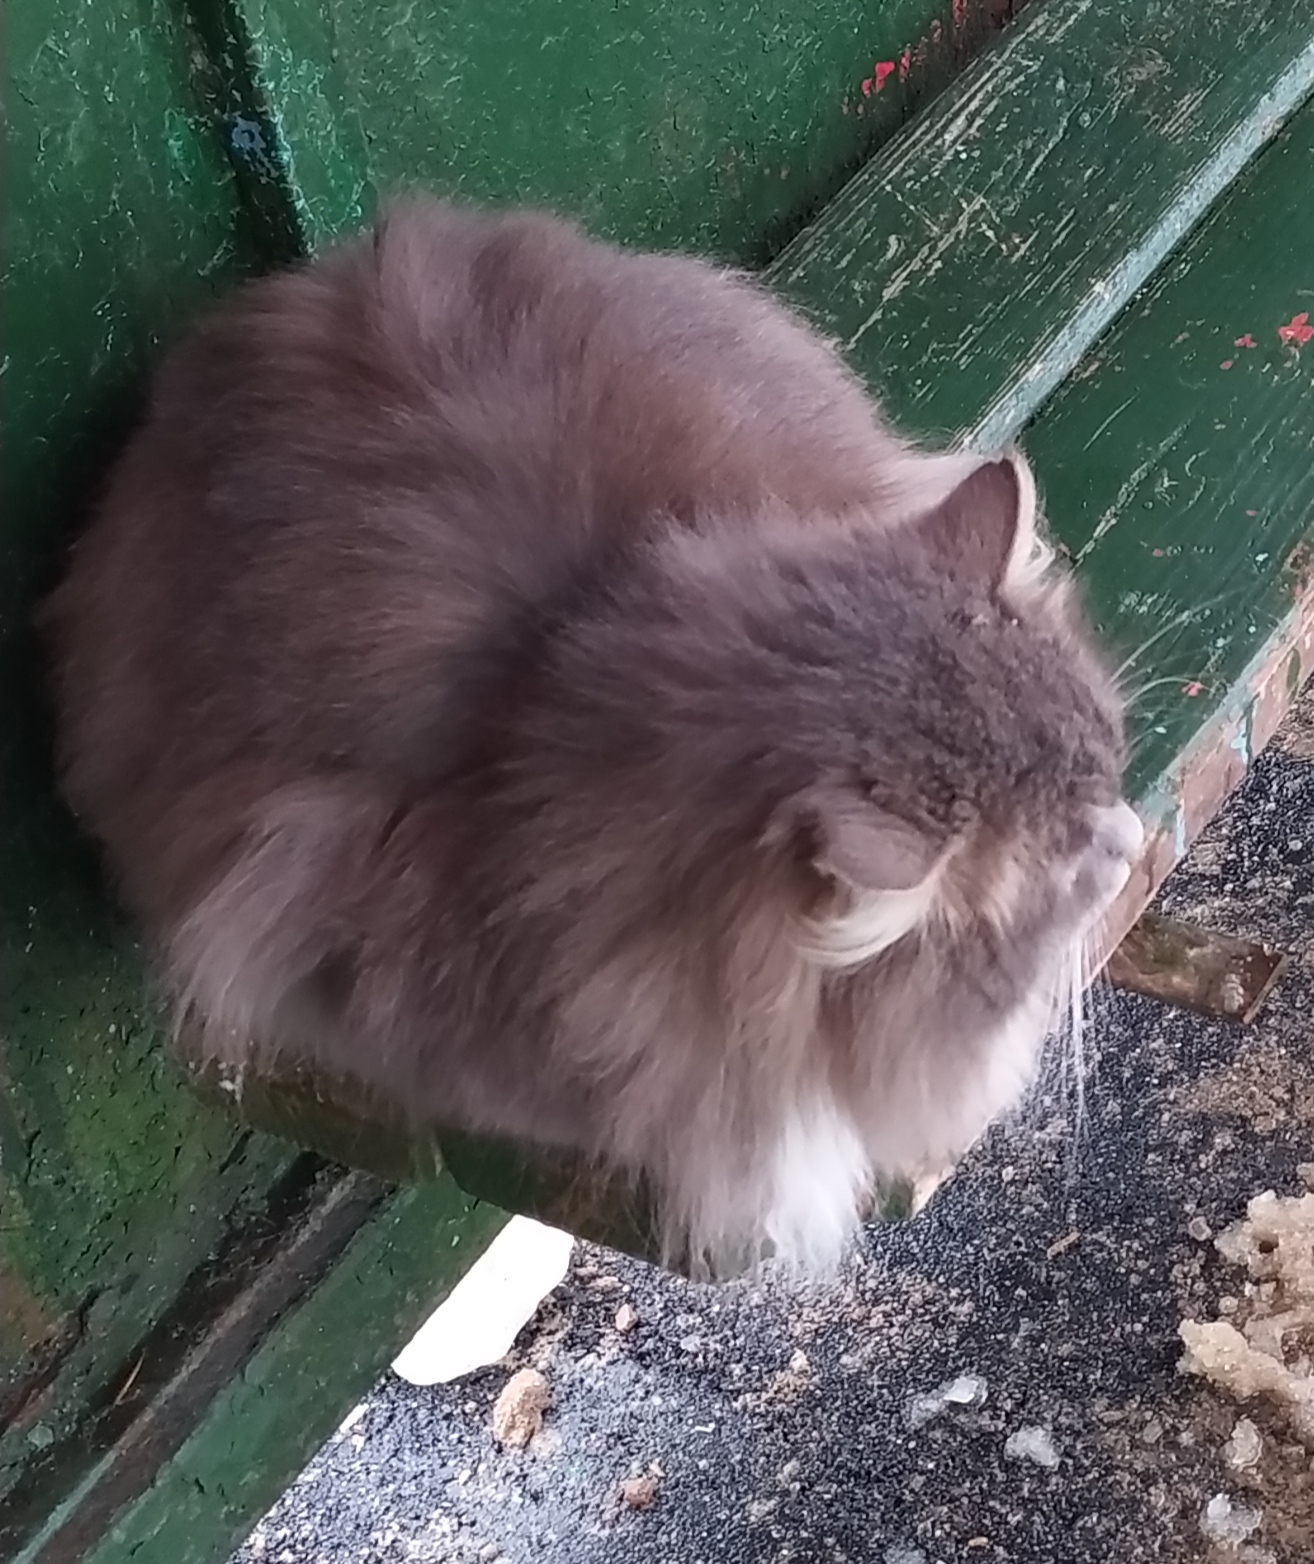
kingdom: Animalia
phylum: Chordata
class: Mammalia
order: Carnivora
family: Felidae
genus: Felis
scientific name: Felis catus
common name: Domestic cat
